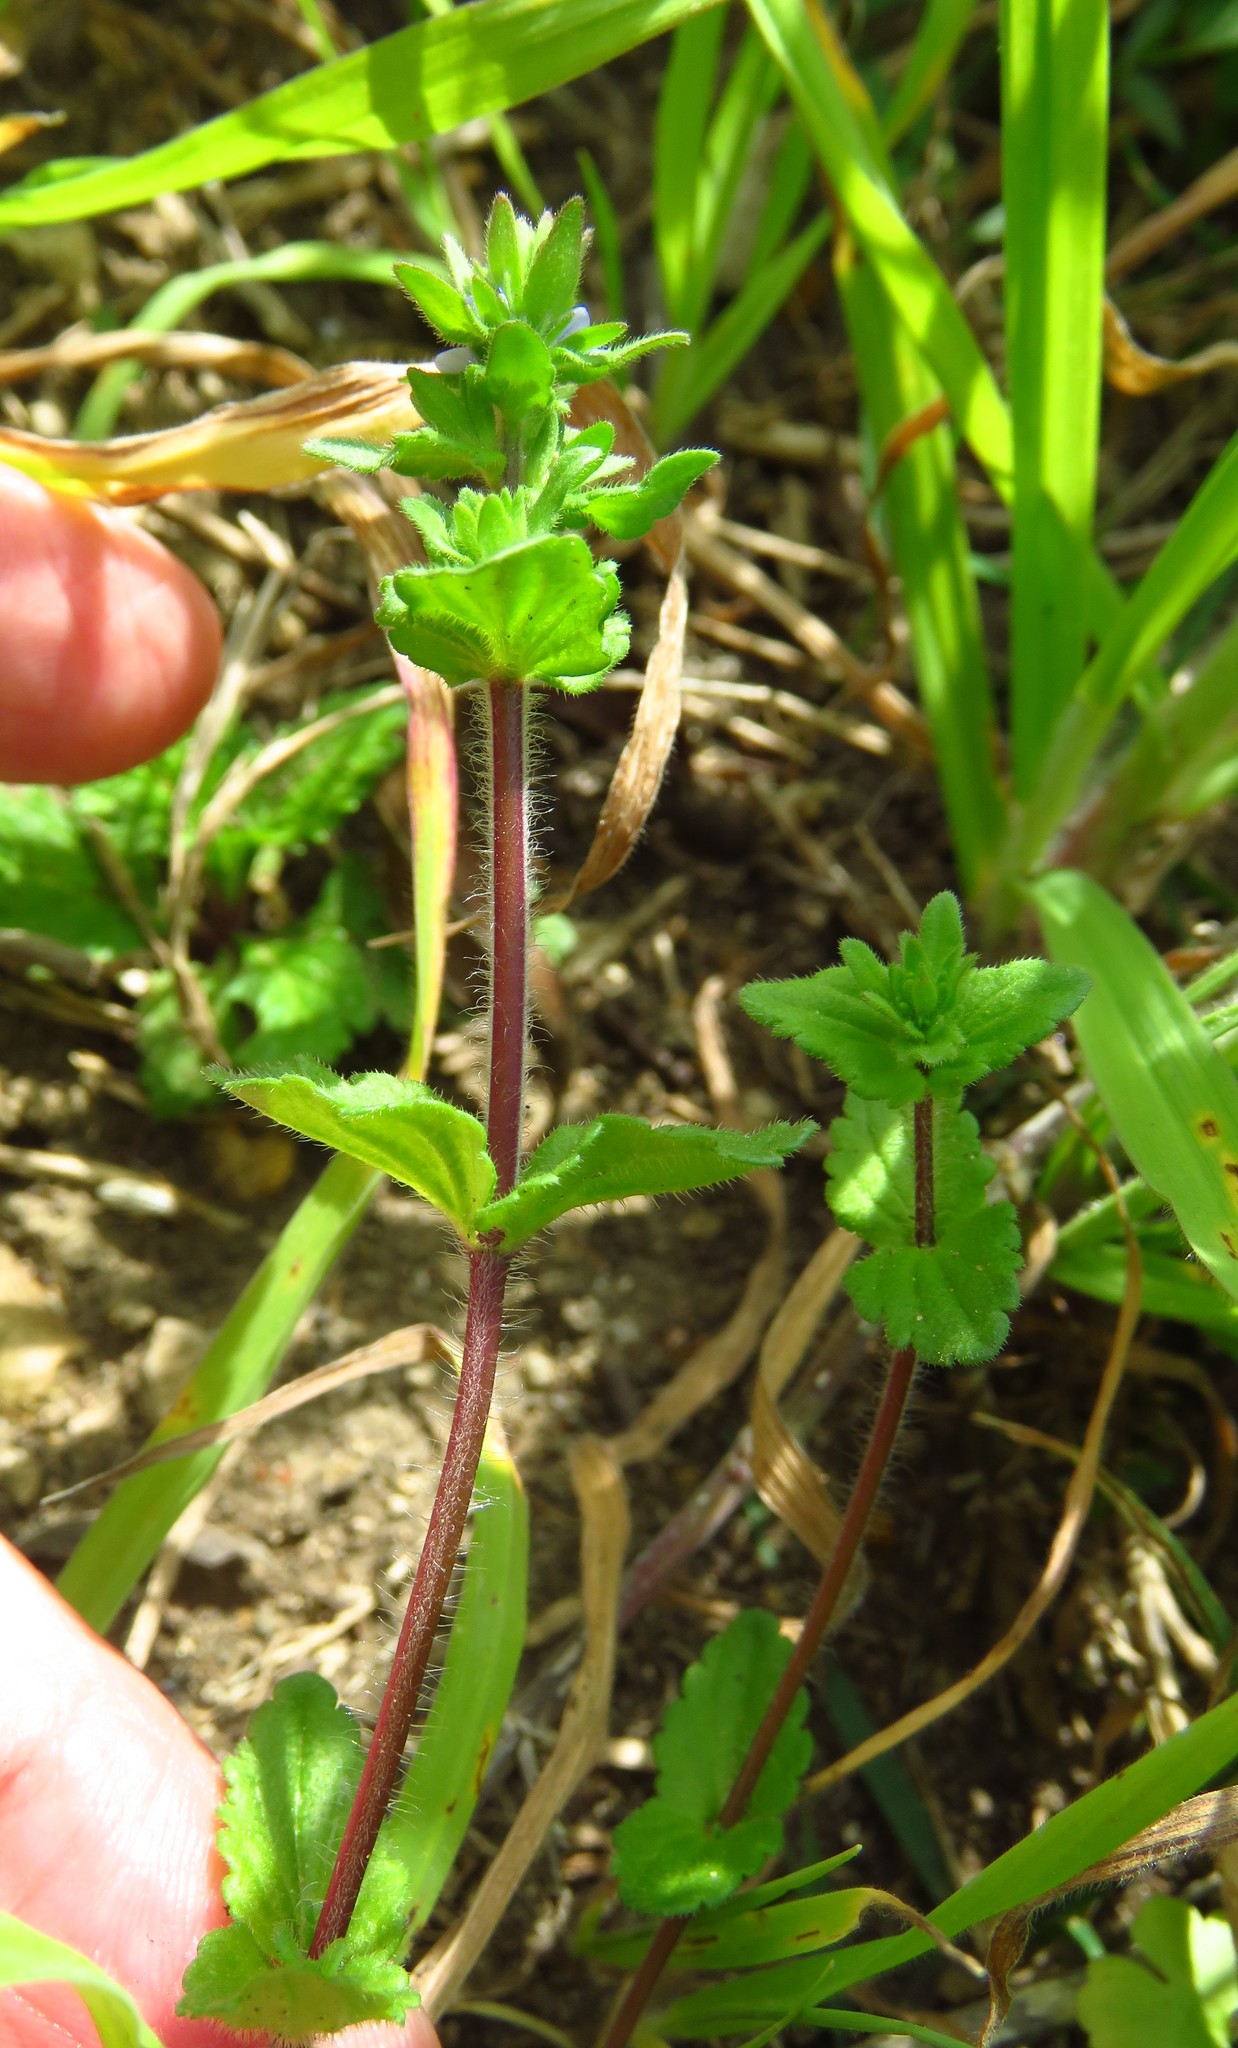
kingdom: Plantae
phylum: Tracheophyta
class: Magnoliopsida
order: Lamiales
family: Plantaginaceae
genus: Veronica
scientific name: Veronica arvensis
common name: Corn speedwell
